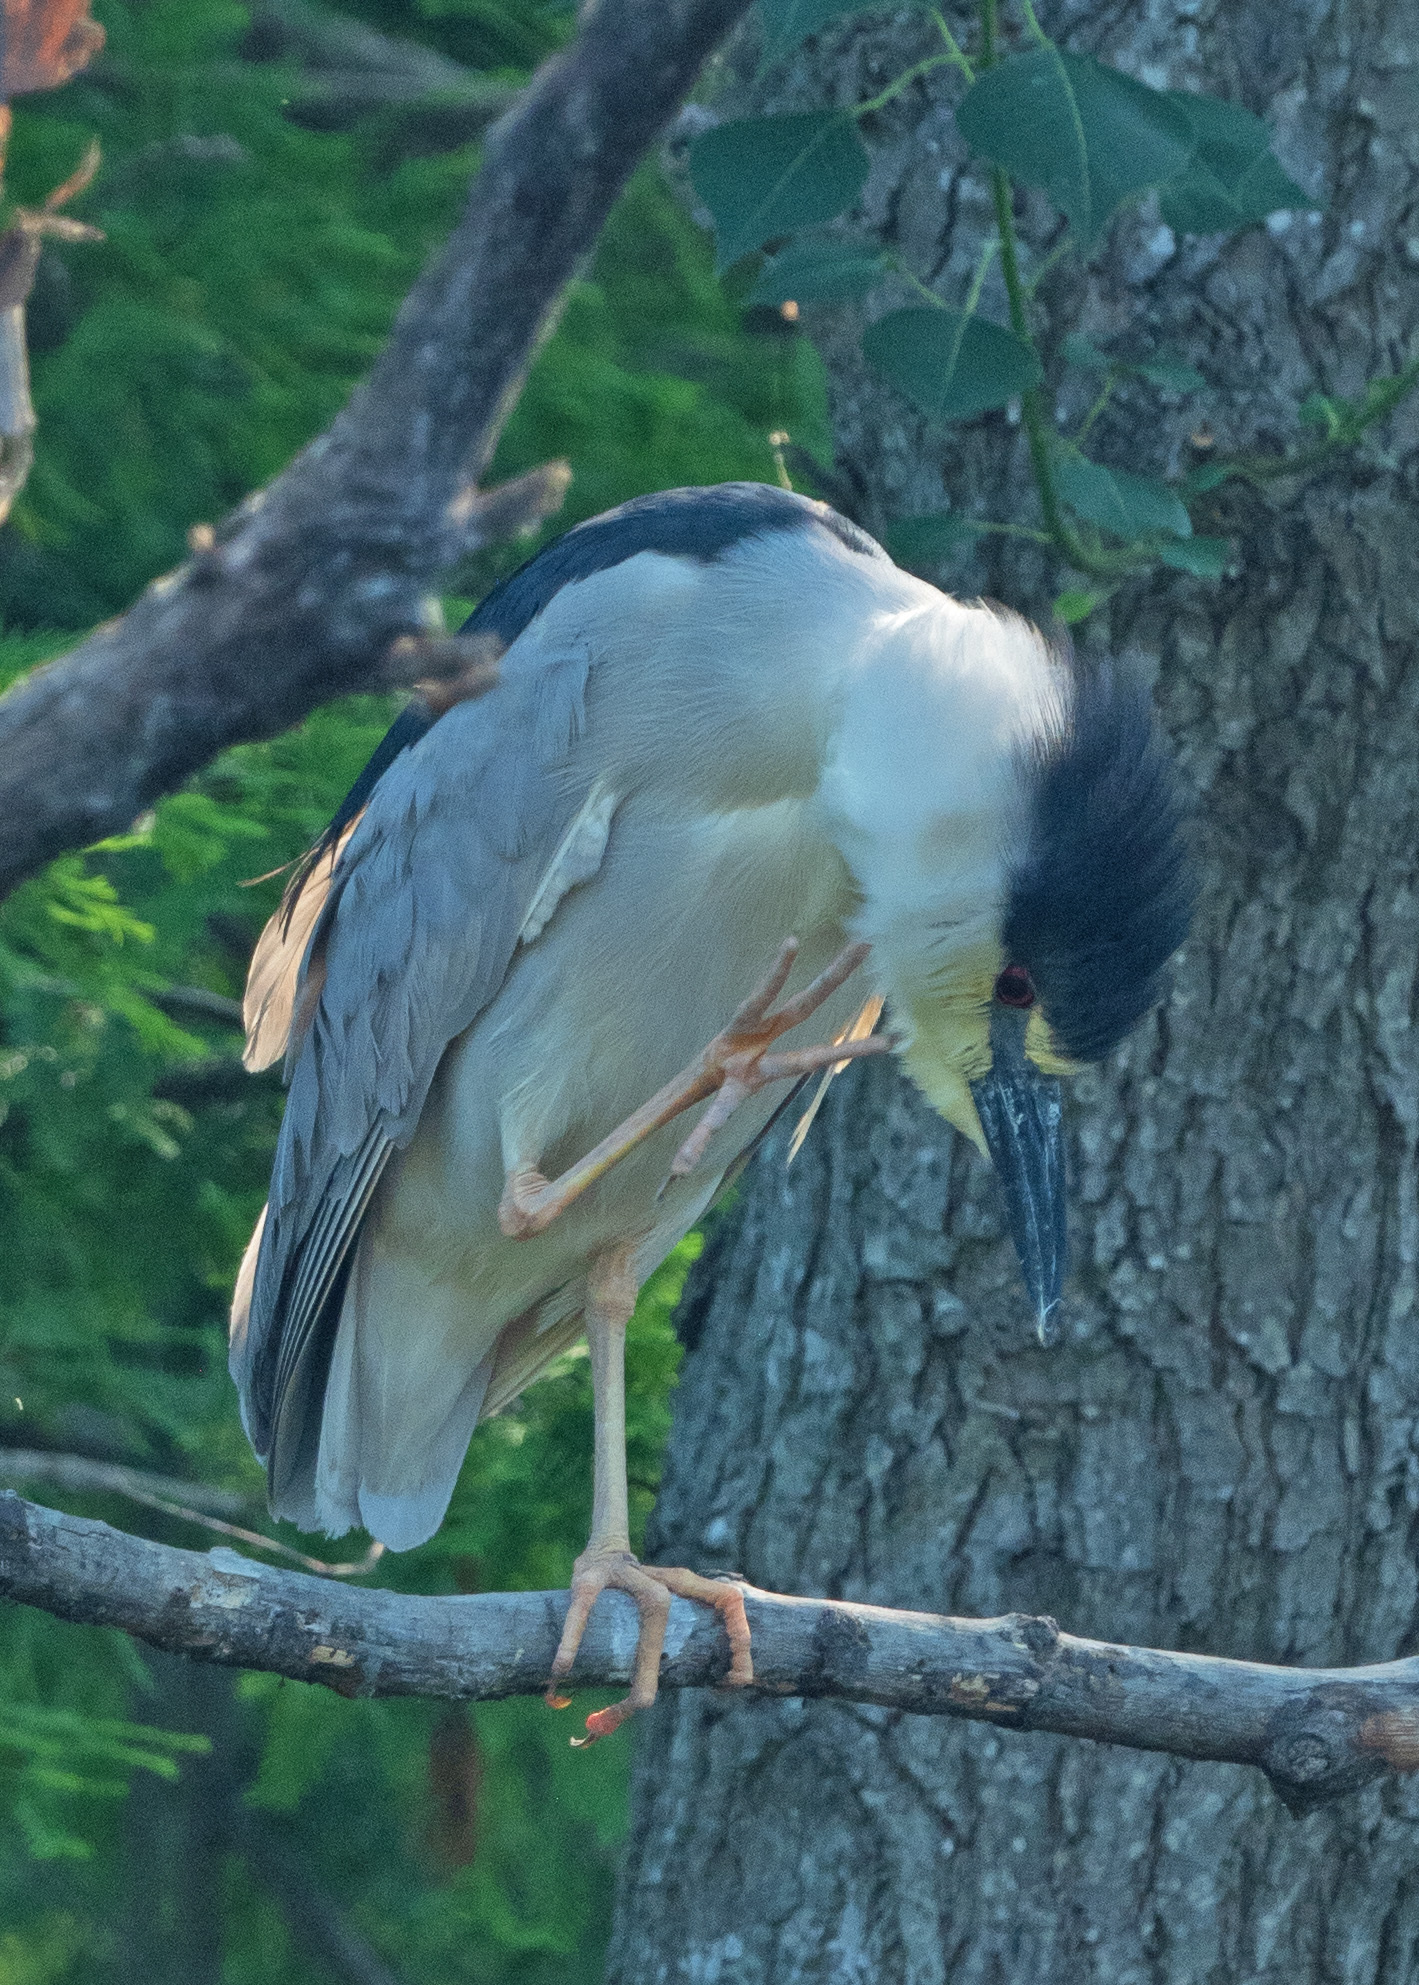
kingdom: Animalia
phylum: Chordata
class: Aves
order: Pelecaniformes
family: Ardeidae
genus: Nycticorax
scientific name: Nycticorax nycticorax
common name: Black-crowned night heron
